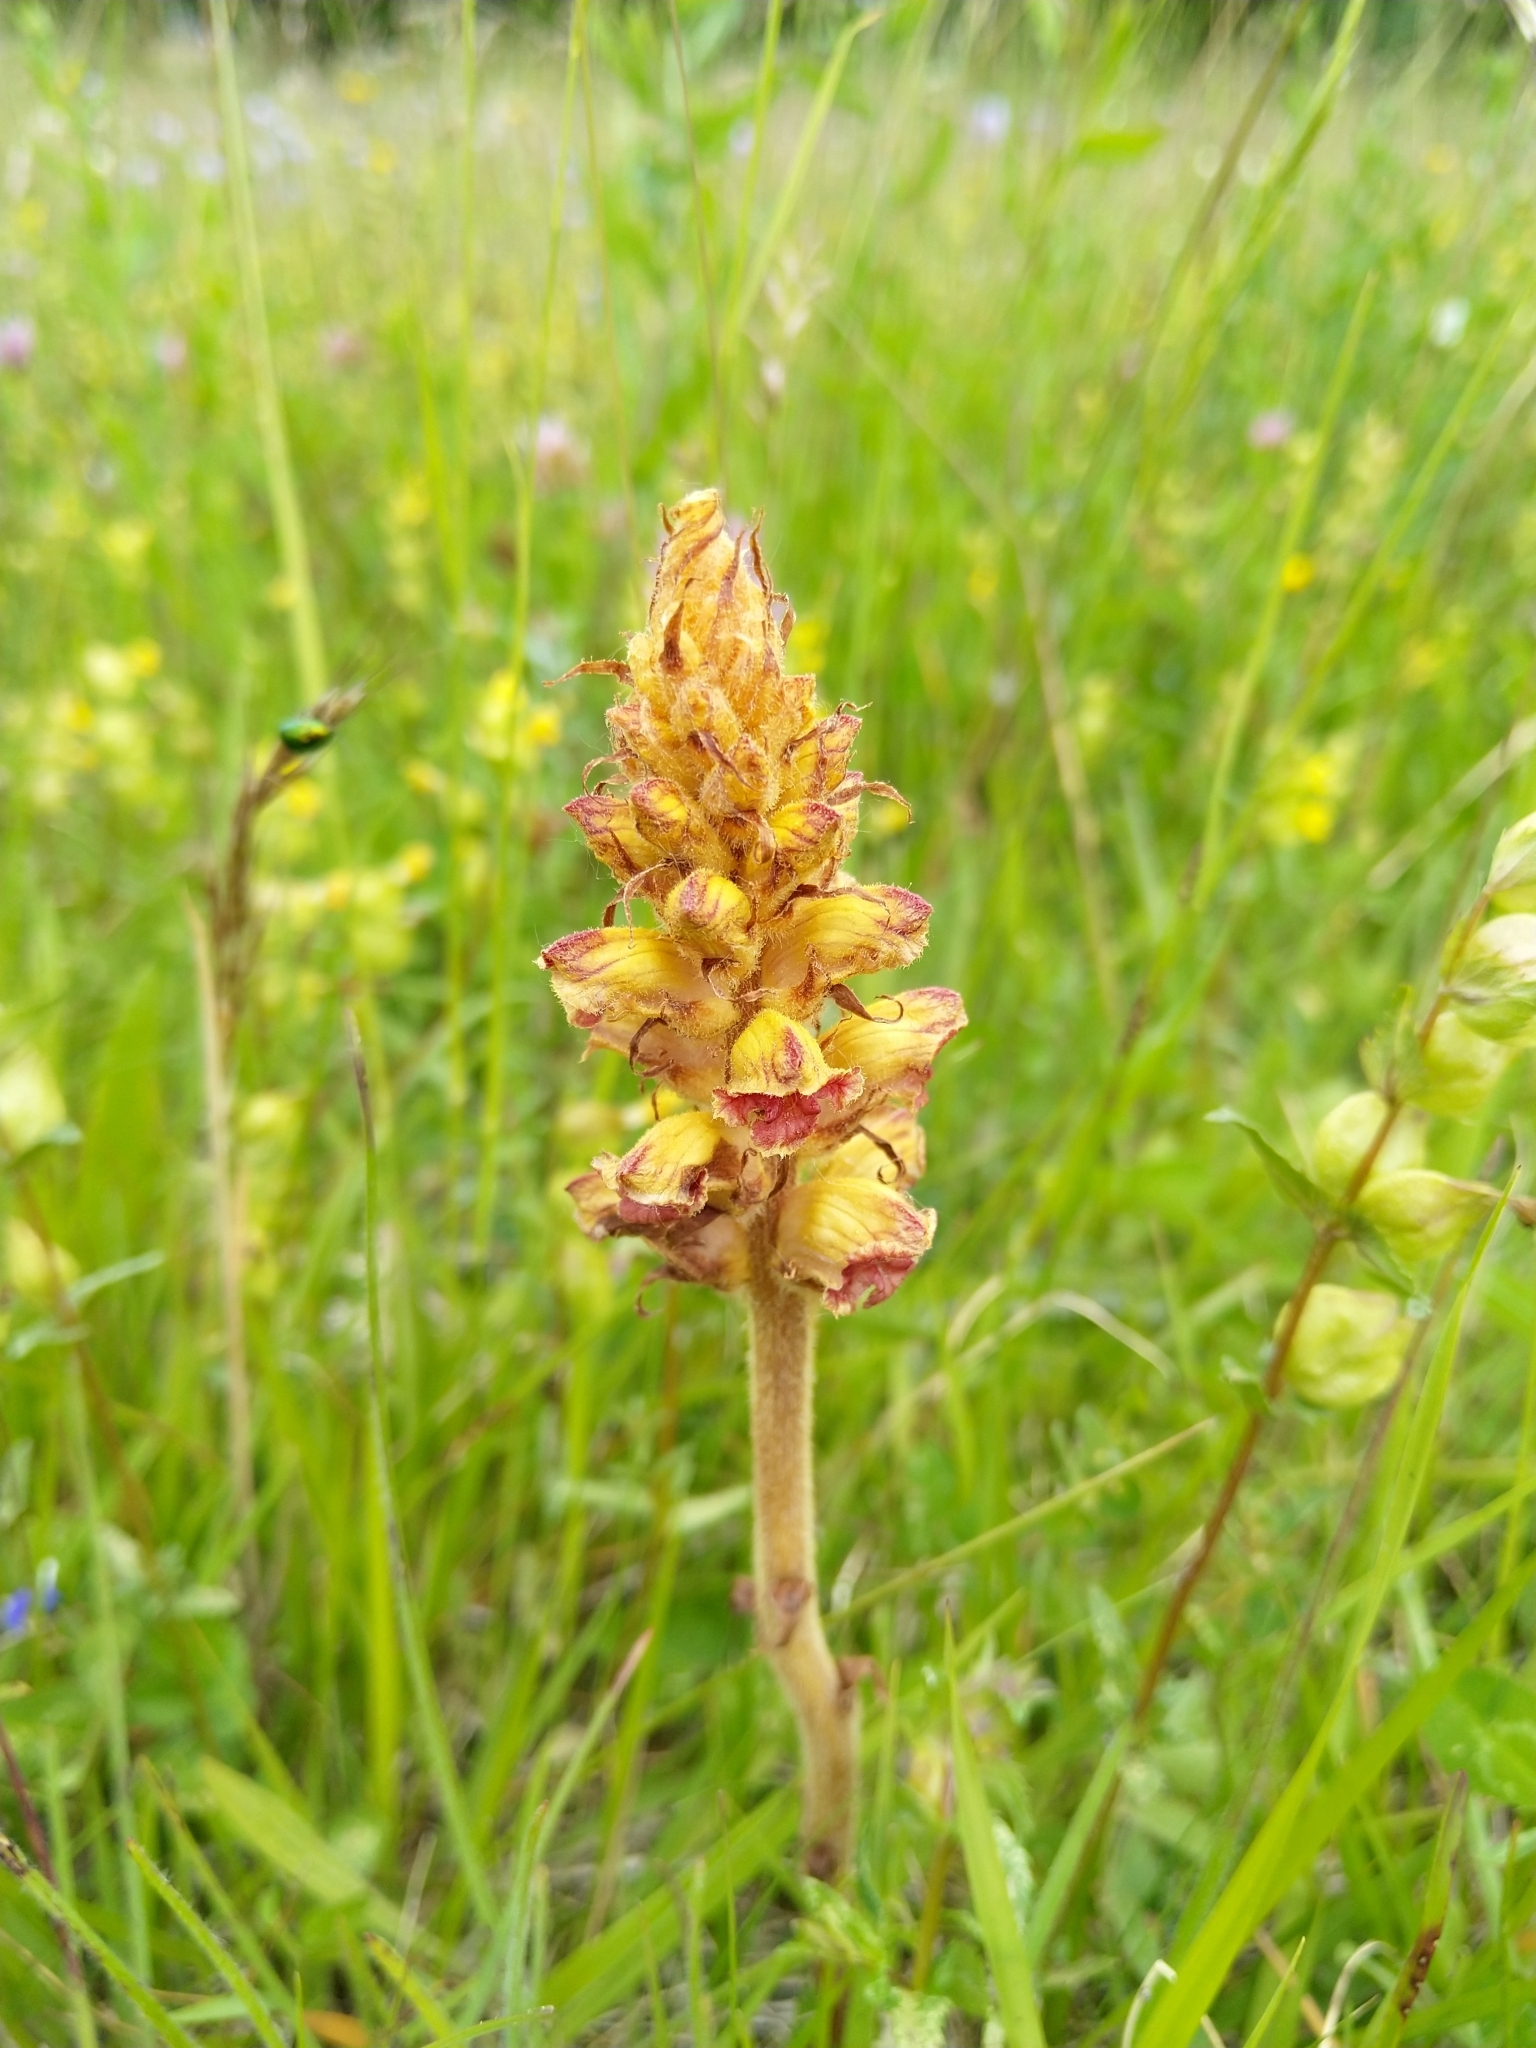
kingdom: Plantae
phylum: Tracheophyta
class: Magnoliopsida
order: Lamiales
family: Orobanchaceae
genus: Orobanche
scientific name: Orobanche gracilis
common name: Slender broomrape
